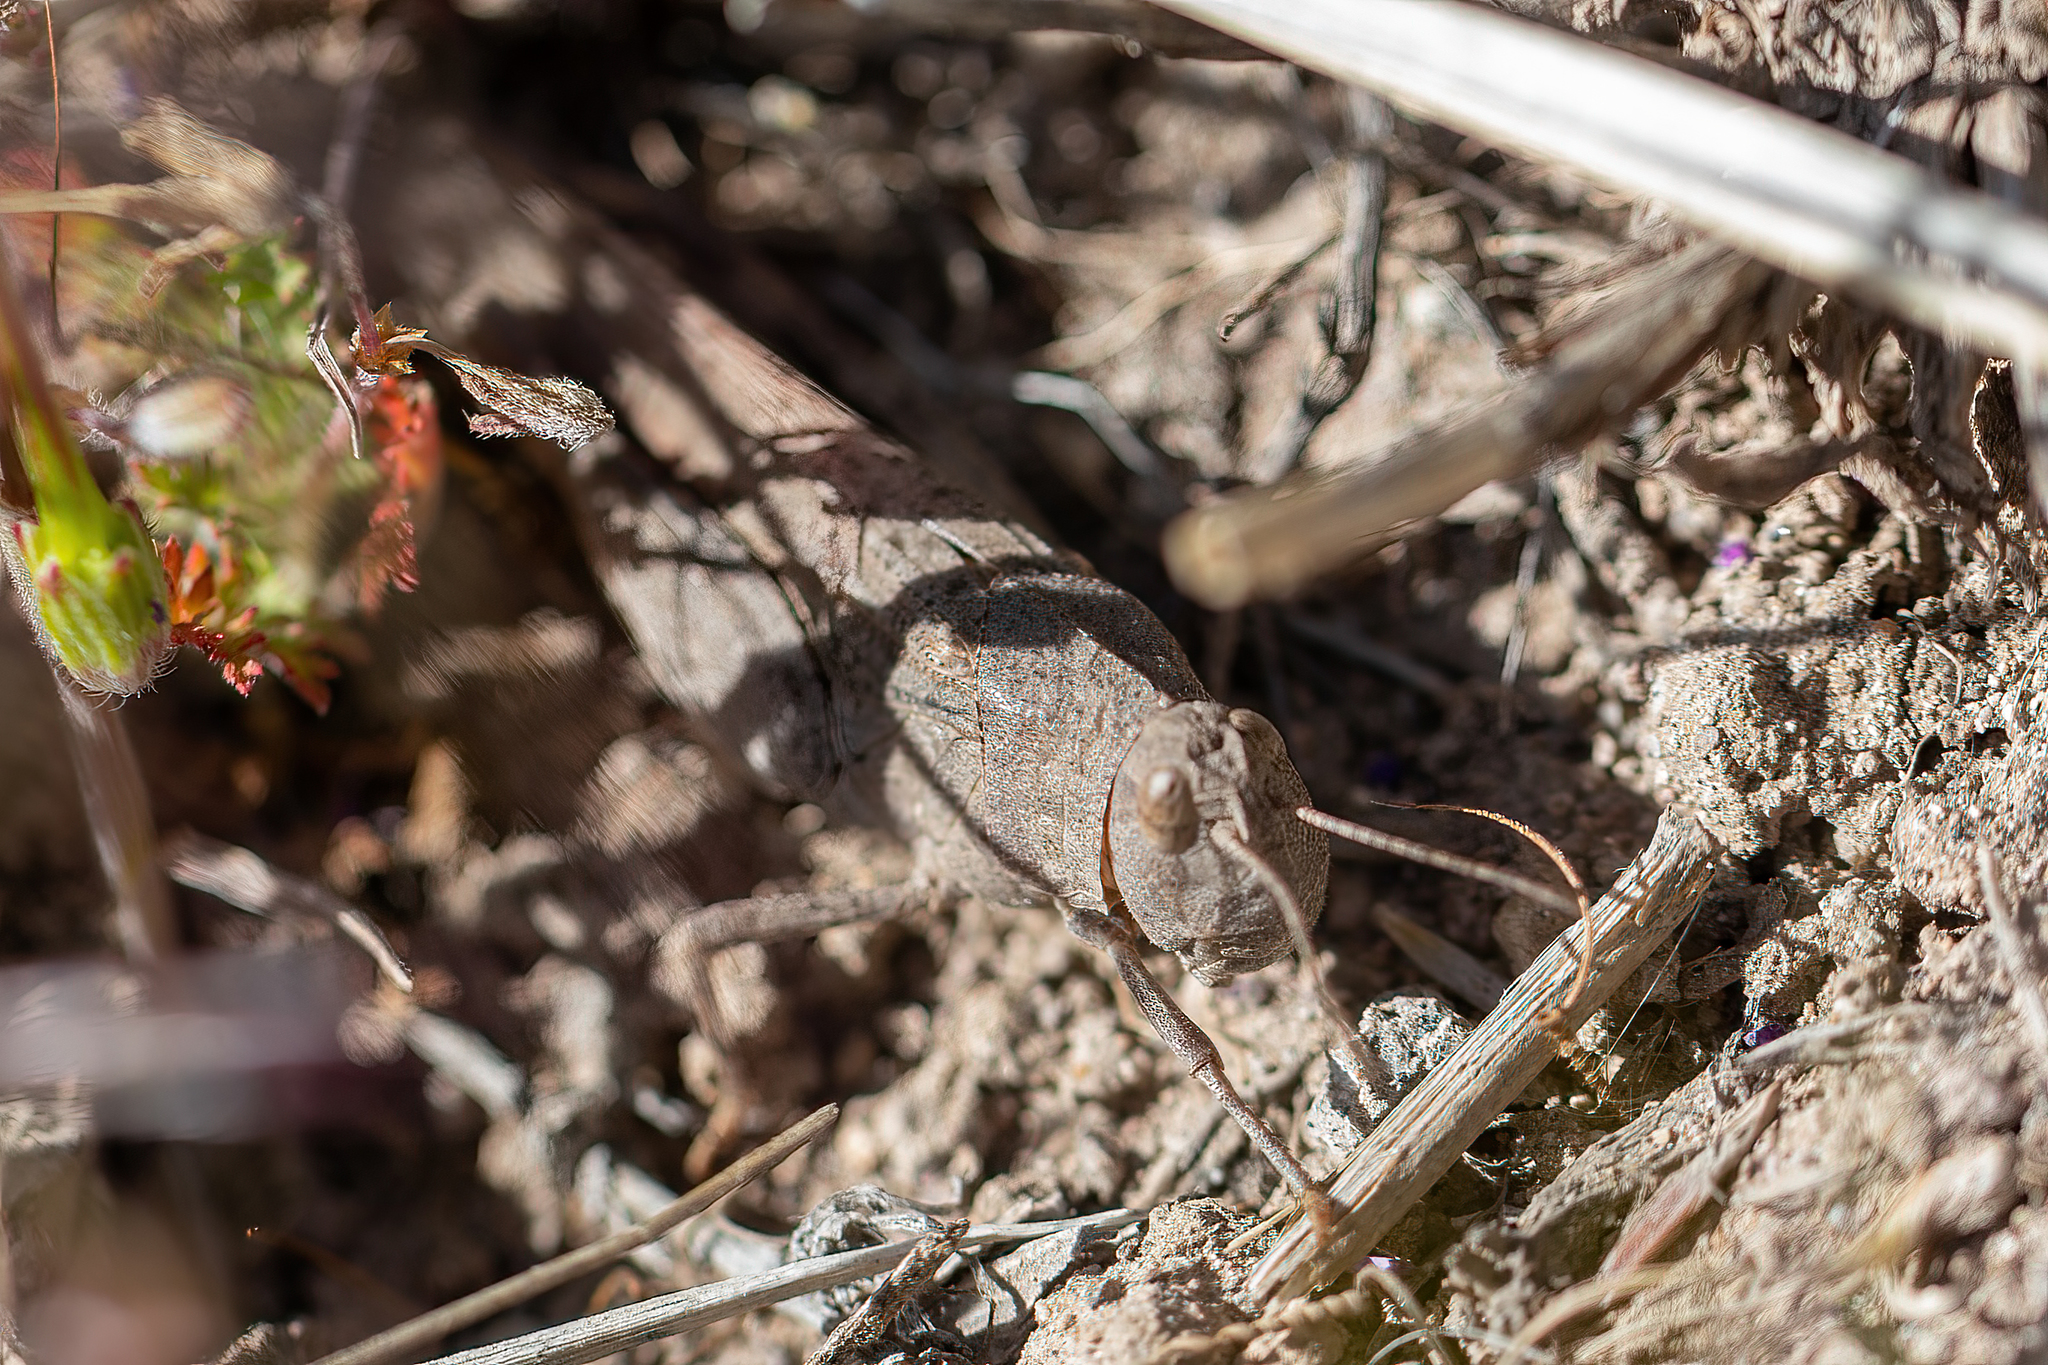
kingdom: Animalia
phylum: Arthropoda
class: Insecta
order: Orthoptera
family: Acrididae
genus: Arphia
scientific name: Arphia conspersa
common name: Speckle-winged rangeland grasshopper
